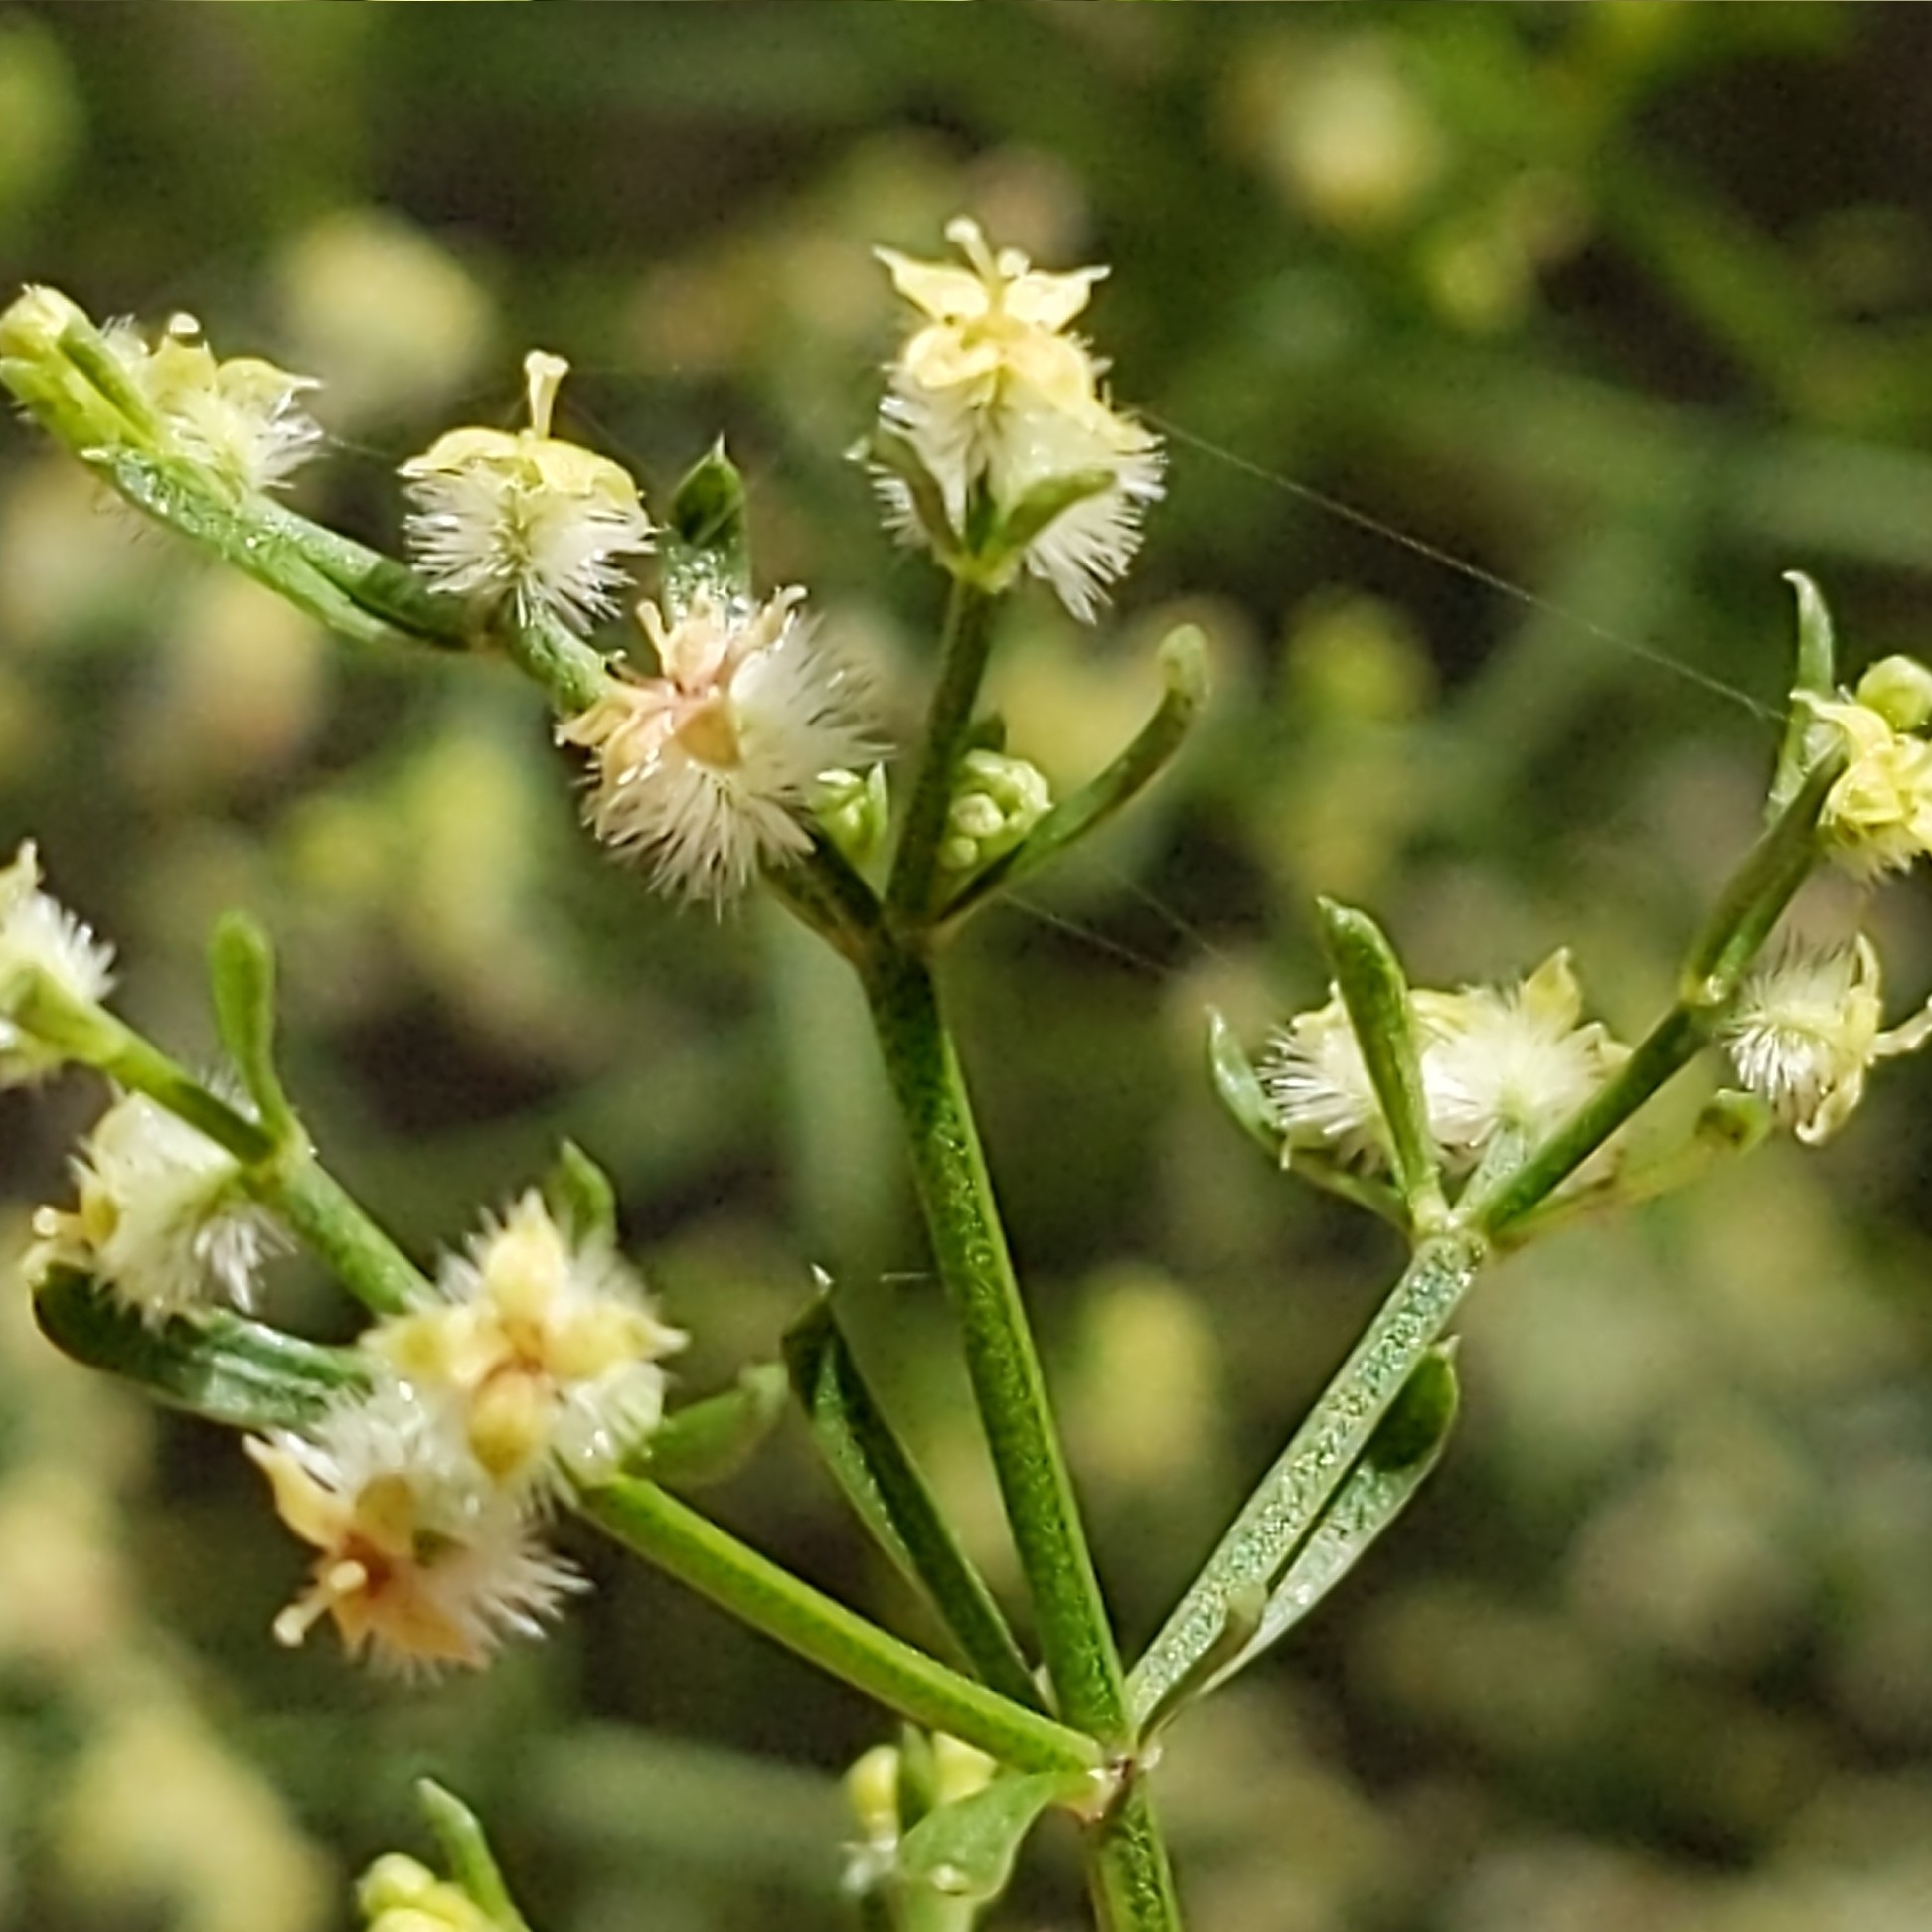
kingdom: Plantae
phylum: Tracheophyta
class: Magnoliopsida
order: Gentianales
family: Rubiaceae
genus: Galium
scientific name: Galium angustifolium
